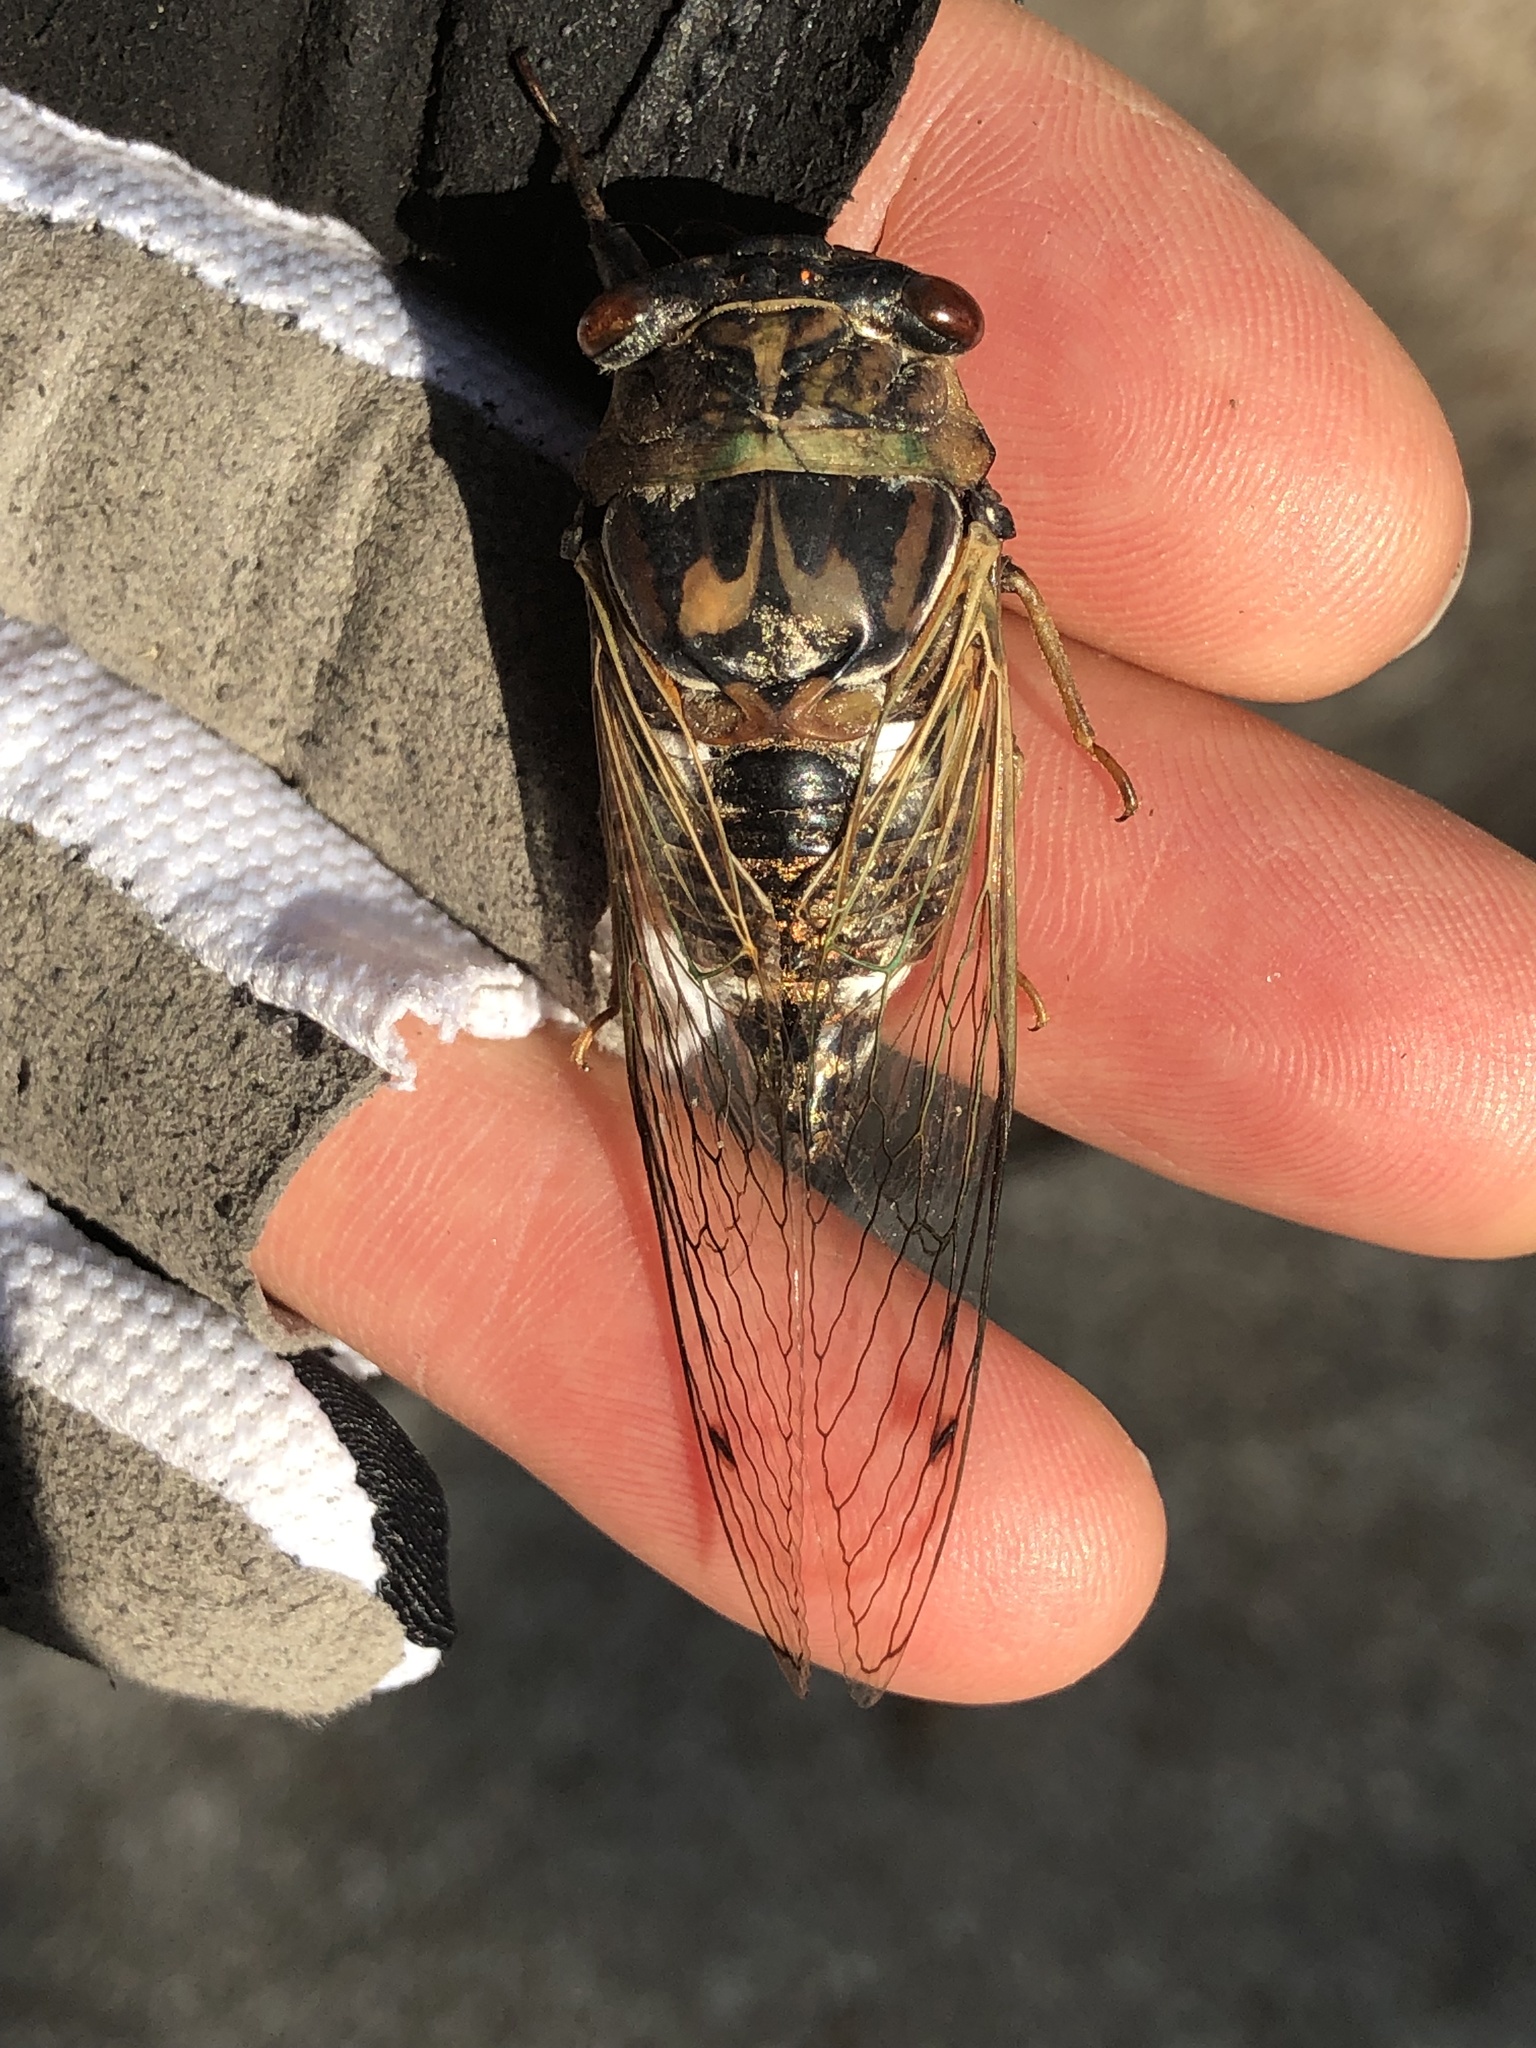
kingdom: Animalia
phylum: Arthropoda
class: Insecta
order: Hemiptera
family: Cicadidae
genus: Megatibicen
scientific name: Megatibicen resh
